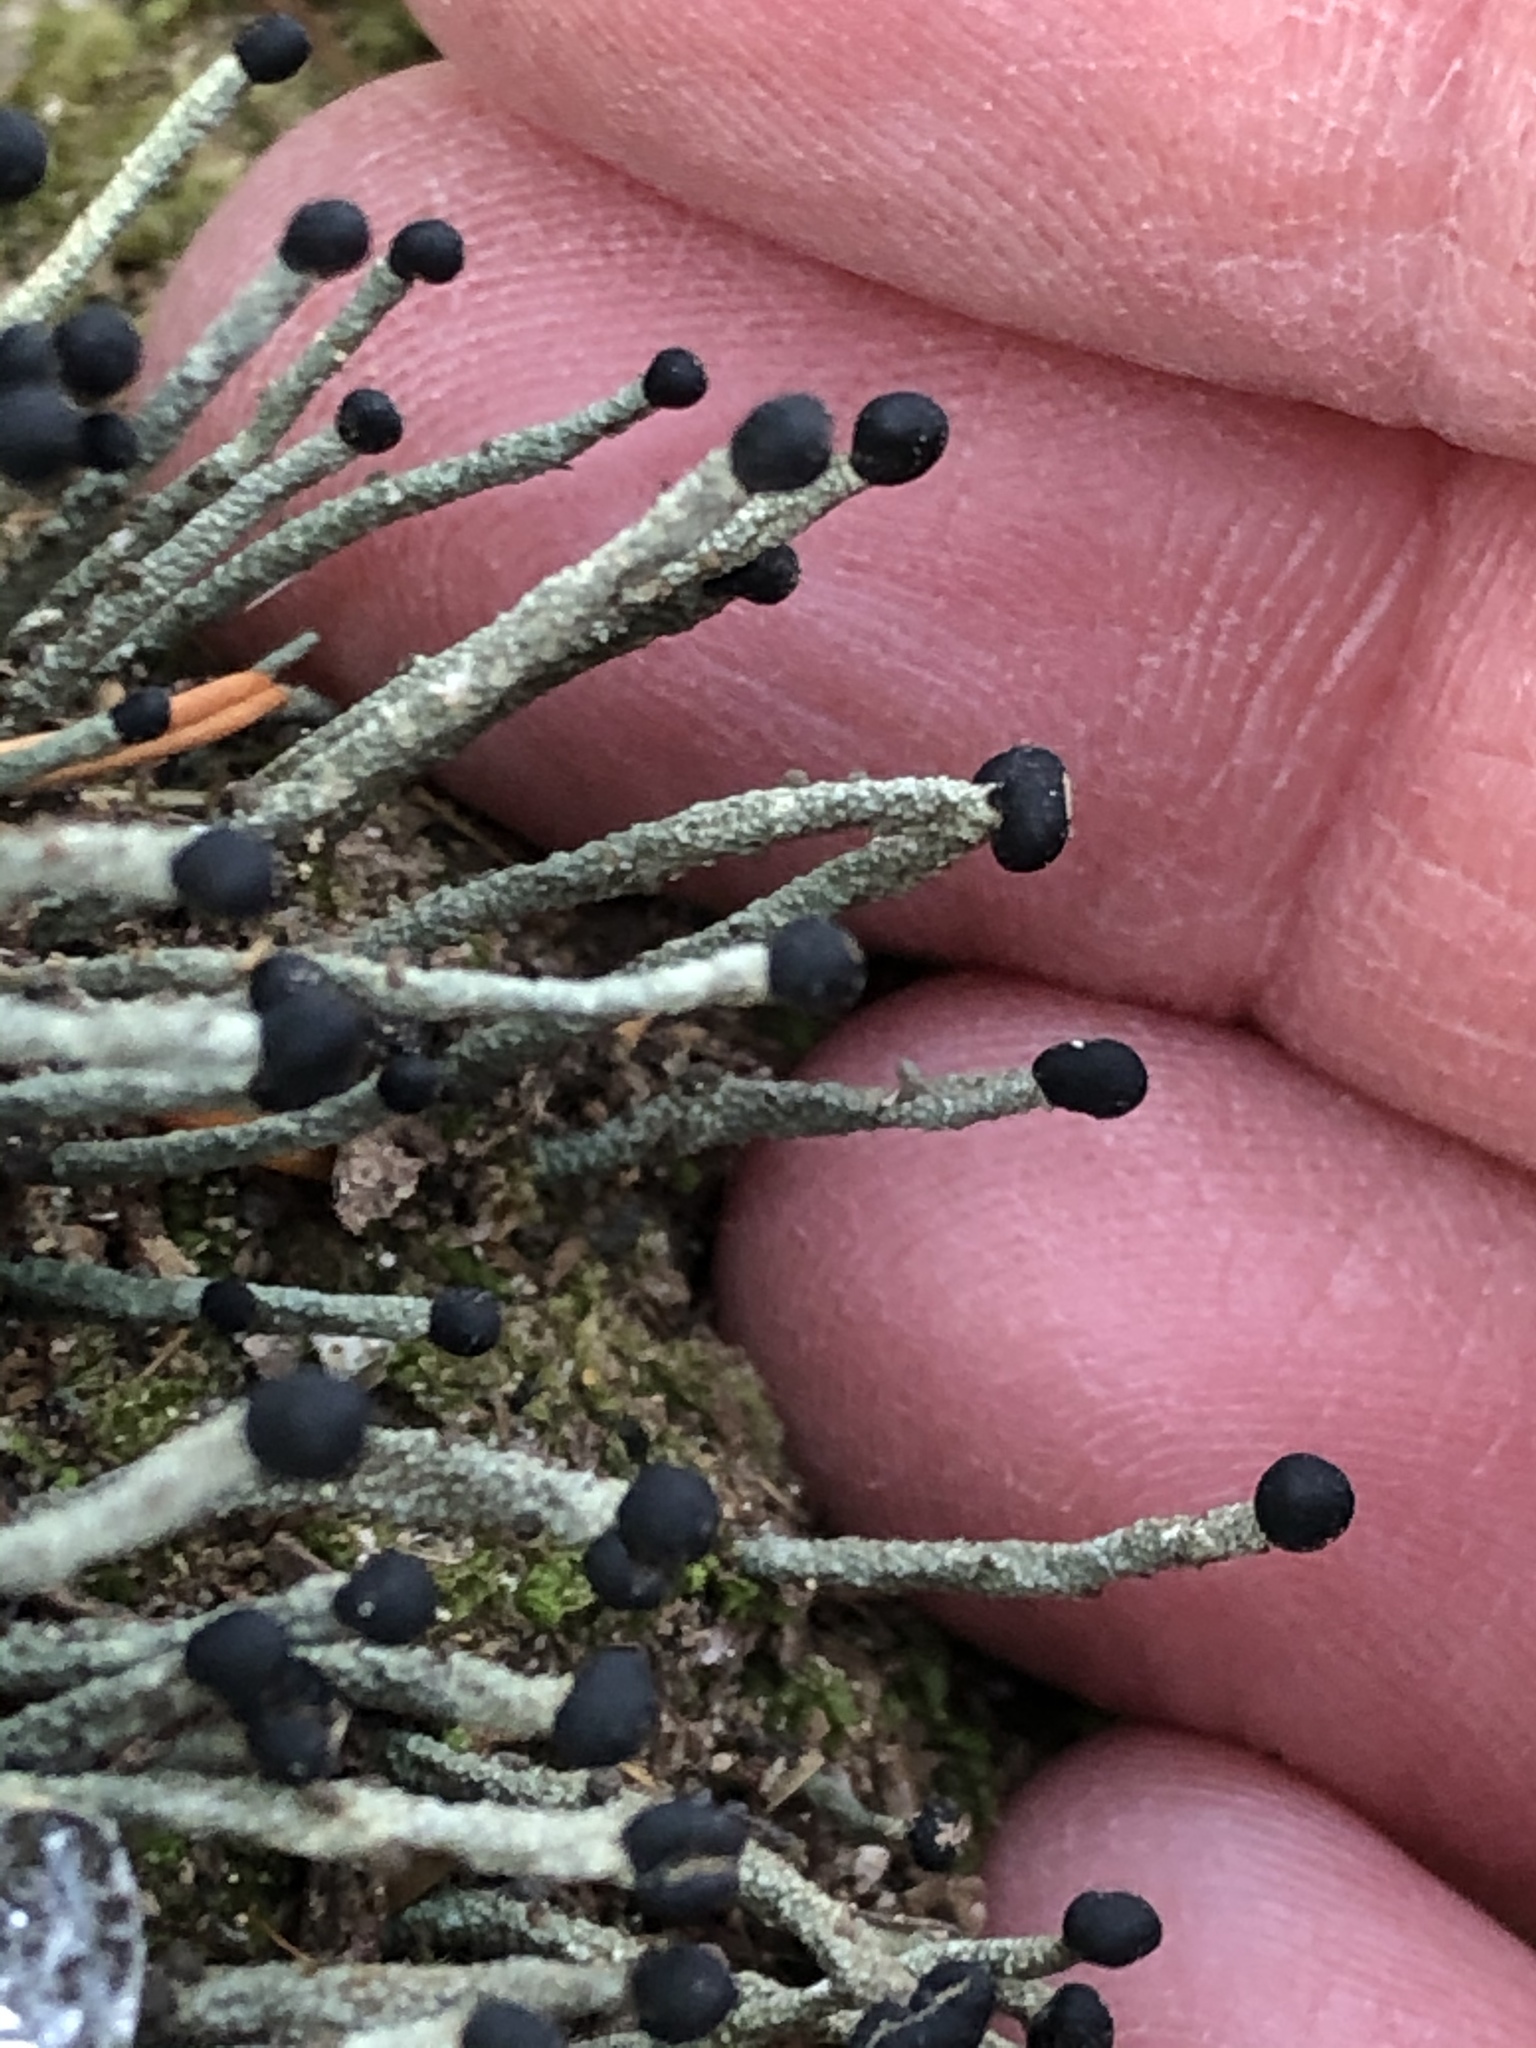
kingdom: Fungi
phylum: Ascomycota
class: Lecanoromycetes
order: Lecanorales
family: Cladoniaceae
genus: Pilophorus
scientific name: Pilophorus acicularis
